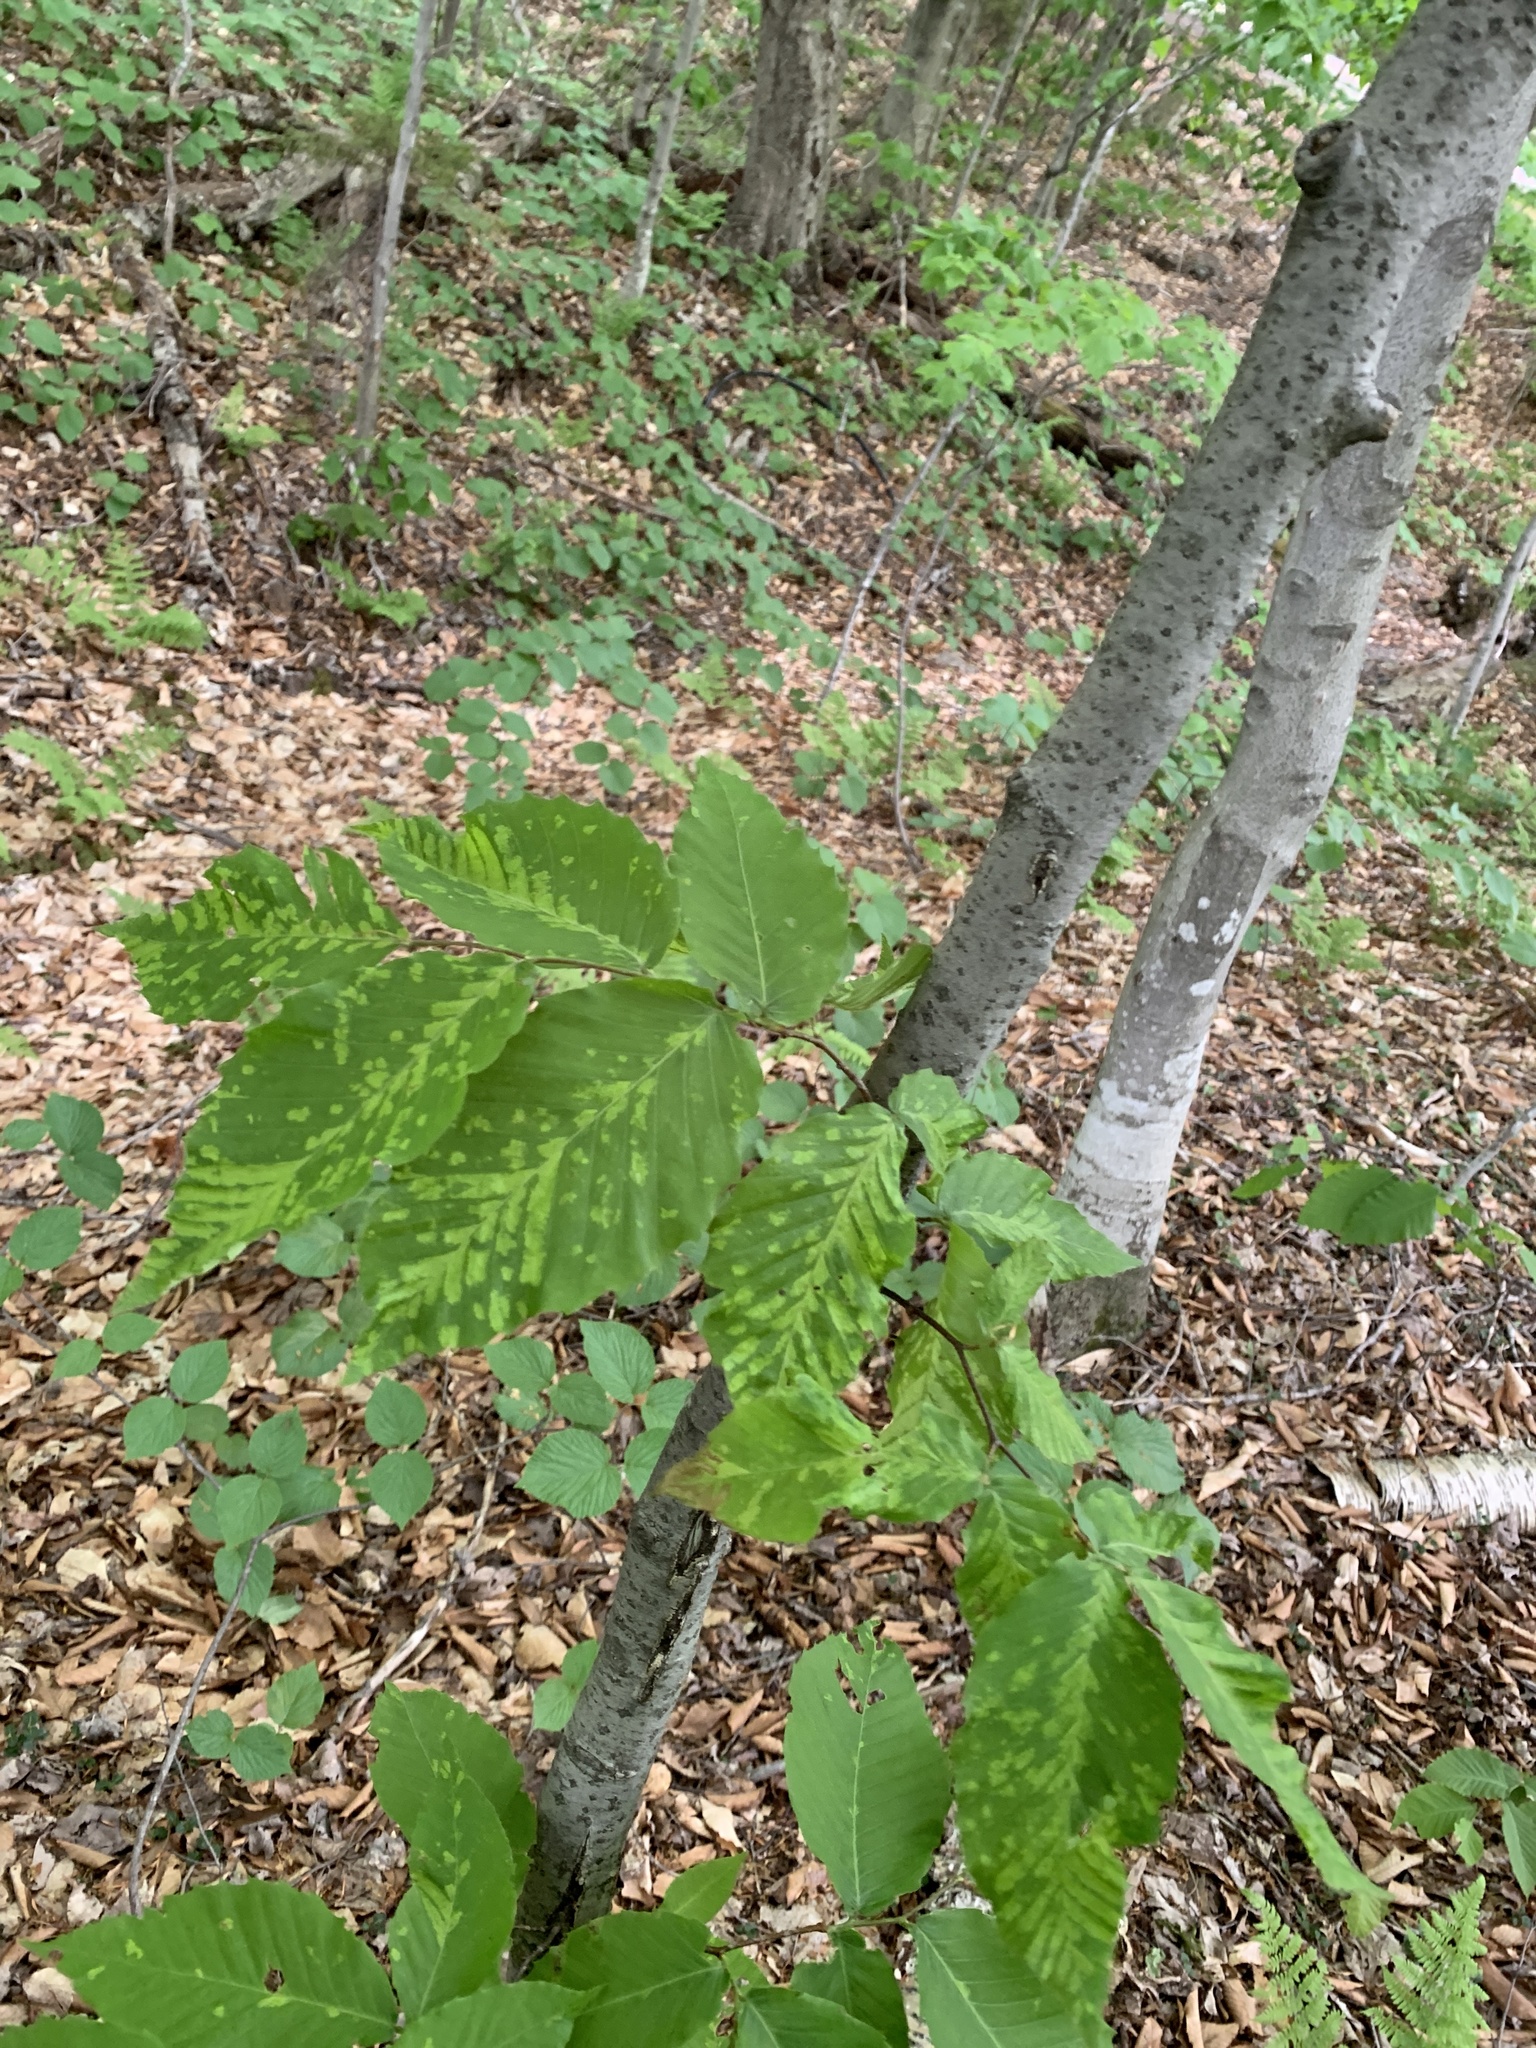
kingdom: Animalia
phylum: Arthropoda
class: Arachnida
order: Trombidiformes
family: Eriophyidae
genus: Acalitus
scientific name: Acalitus
